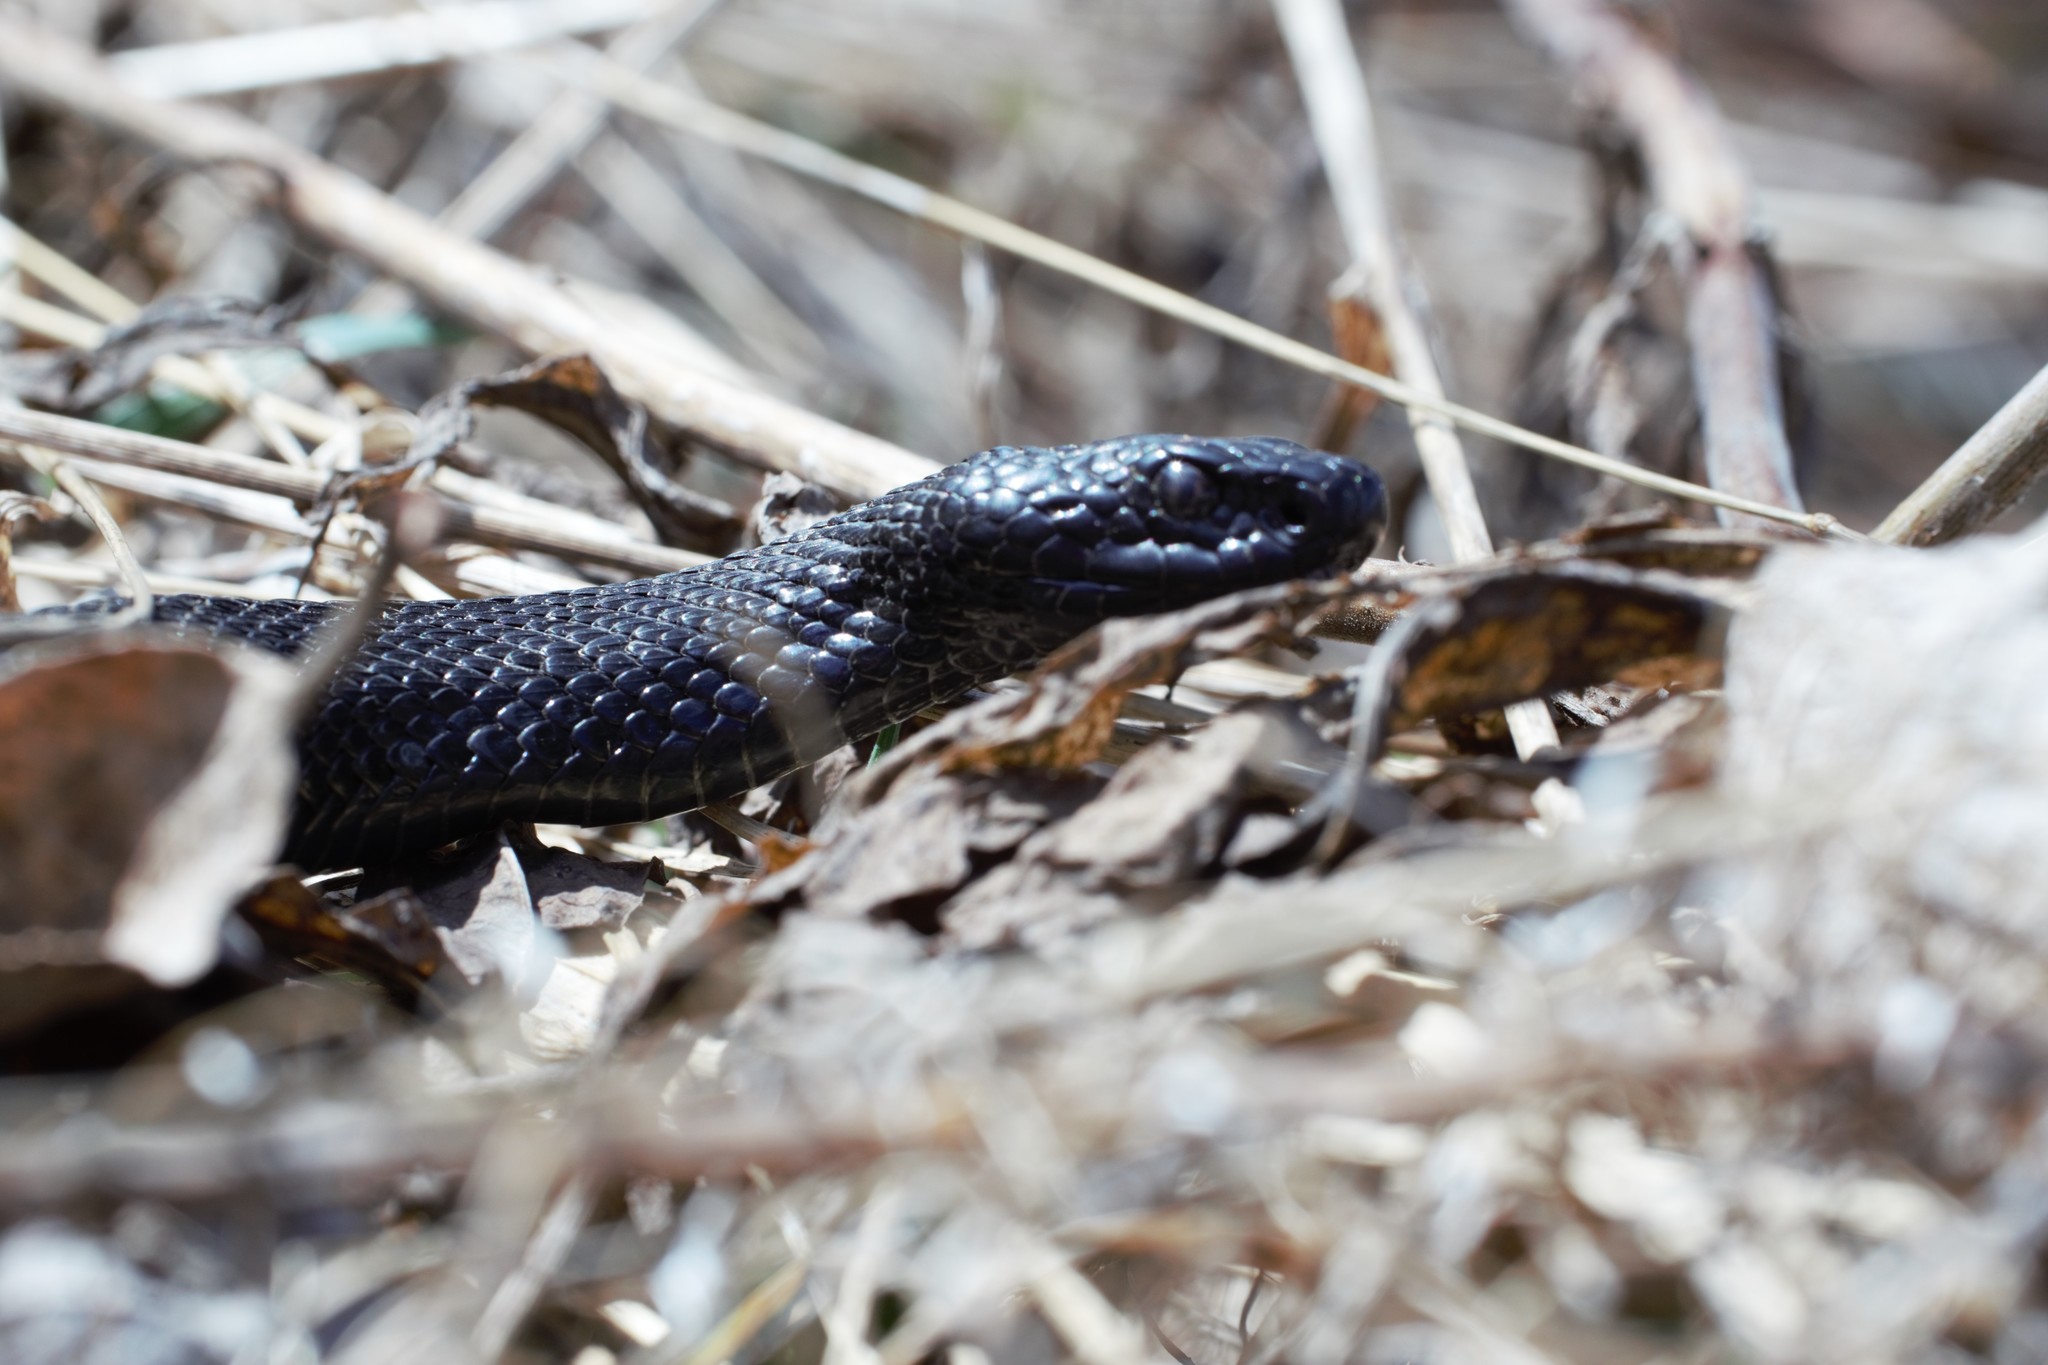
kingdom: Animalia
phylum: Chordata
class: Squamata
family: Viperidae
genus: Vipera
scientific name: Vipera berus
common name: Adder
